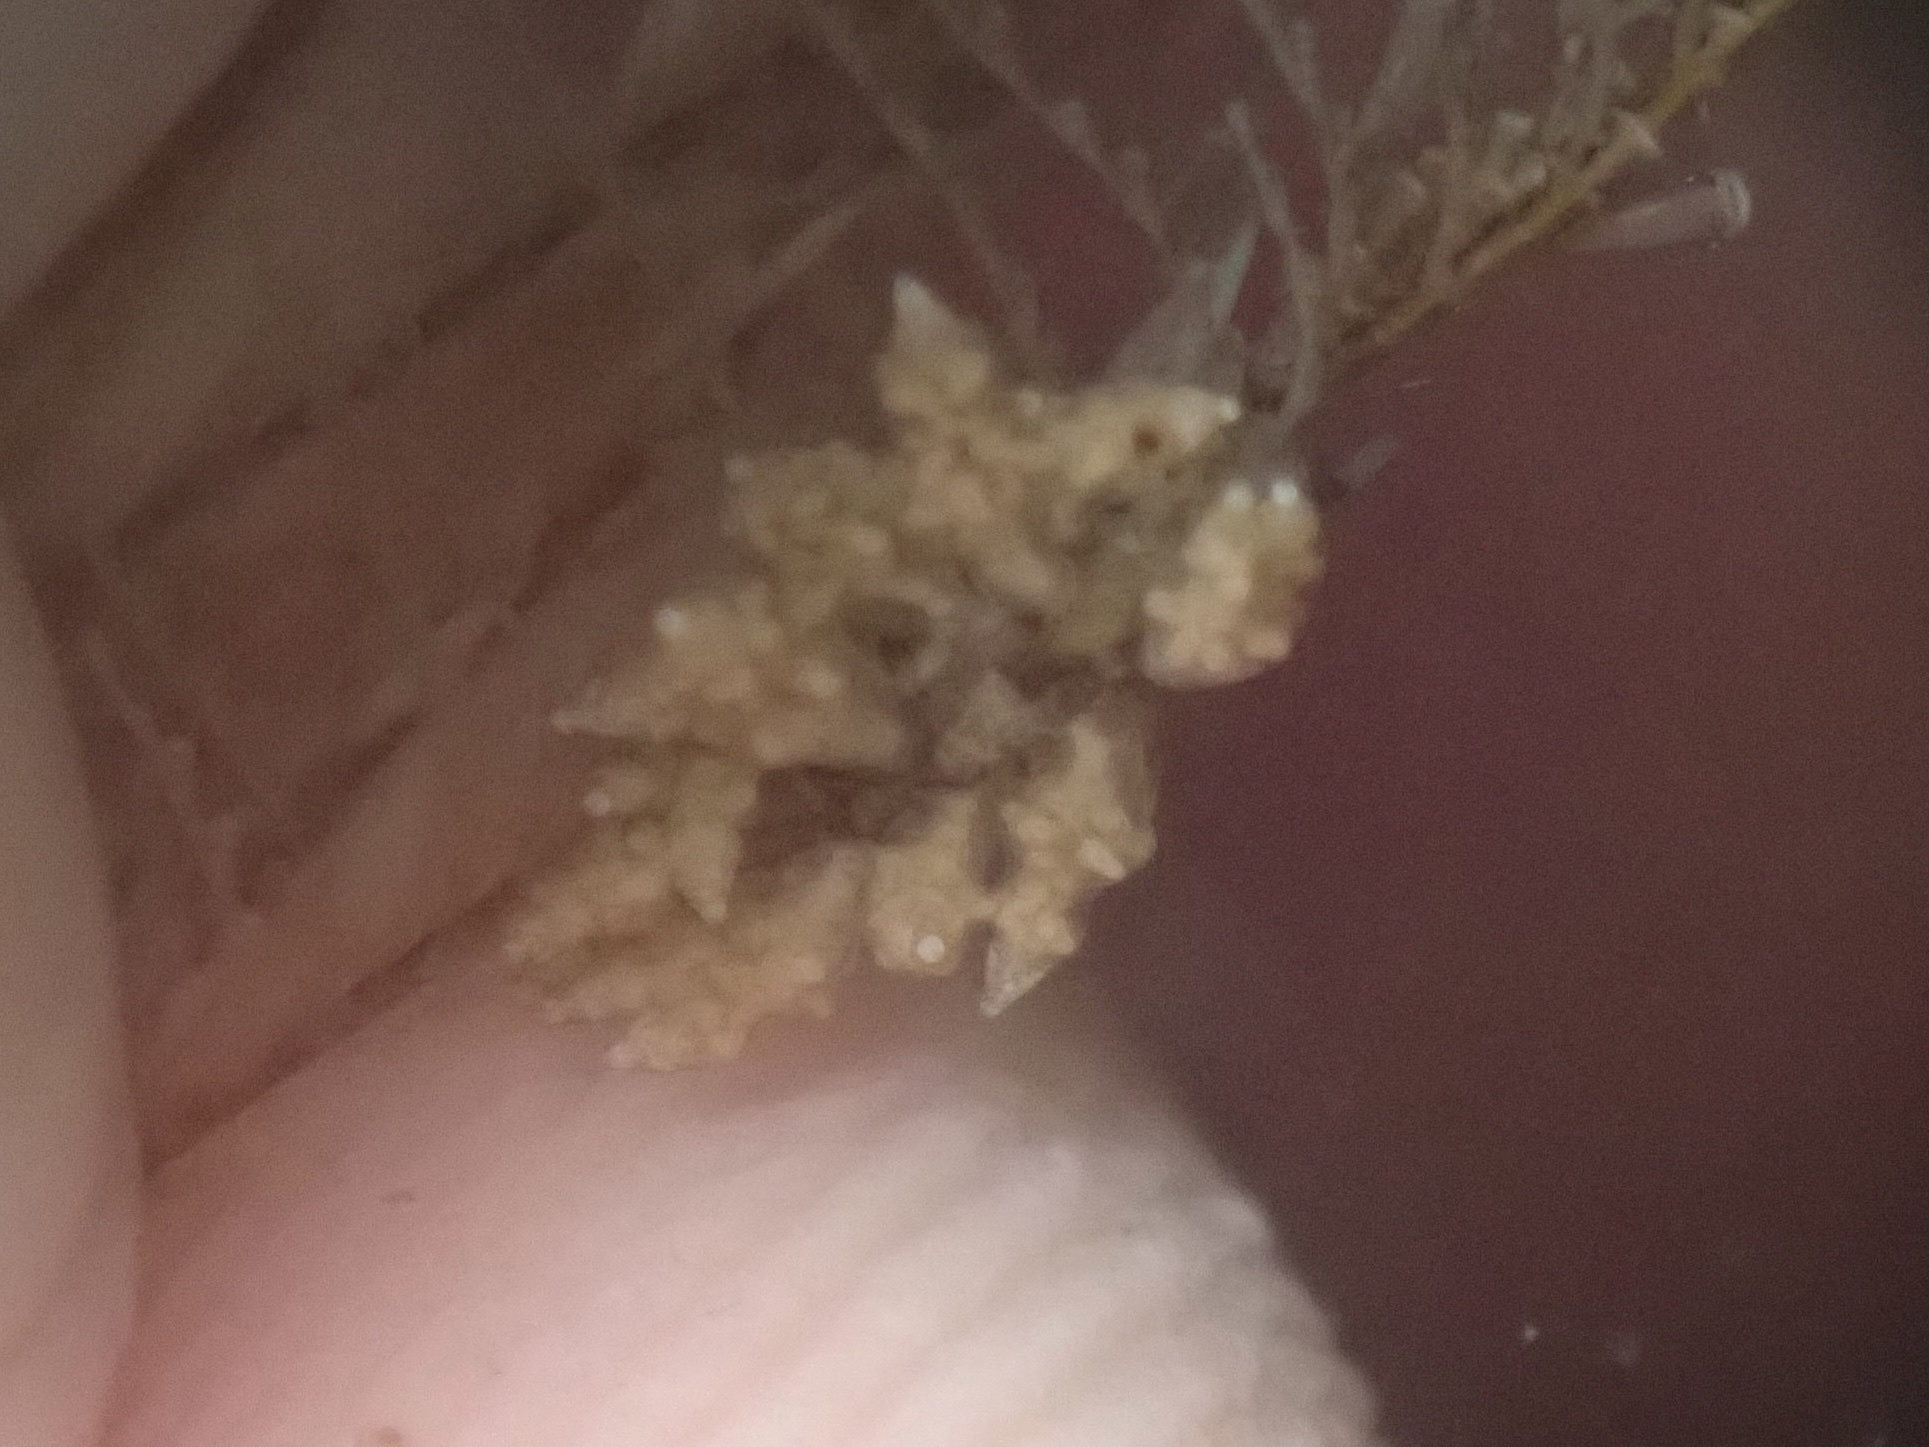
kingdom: Animalia
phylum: Mollusca
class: Gastropoda
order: Nudibranchia
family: Eubranchidae
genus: Eubranchus
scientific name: Eubranchus rustyus
